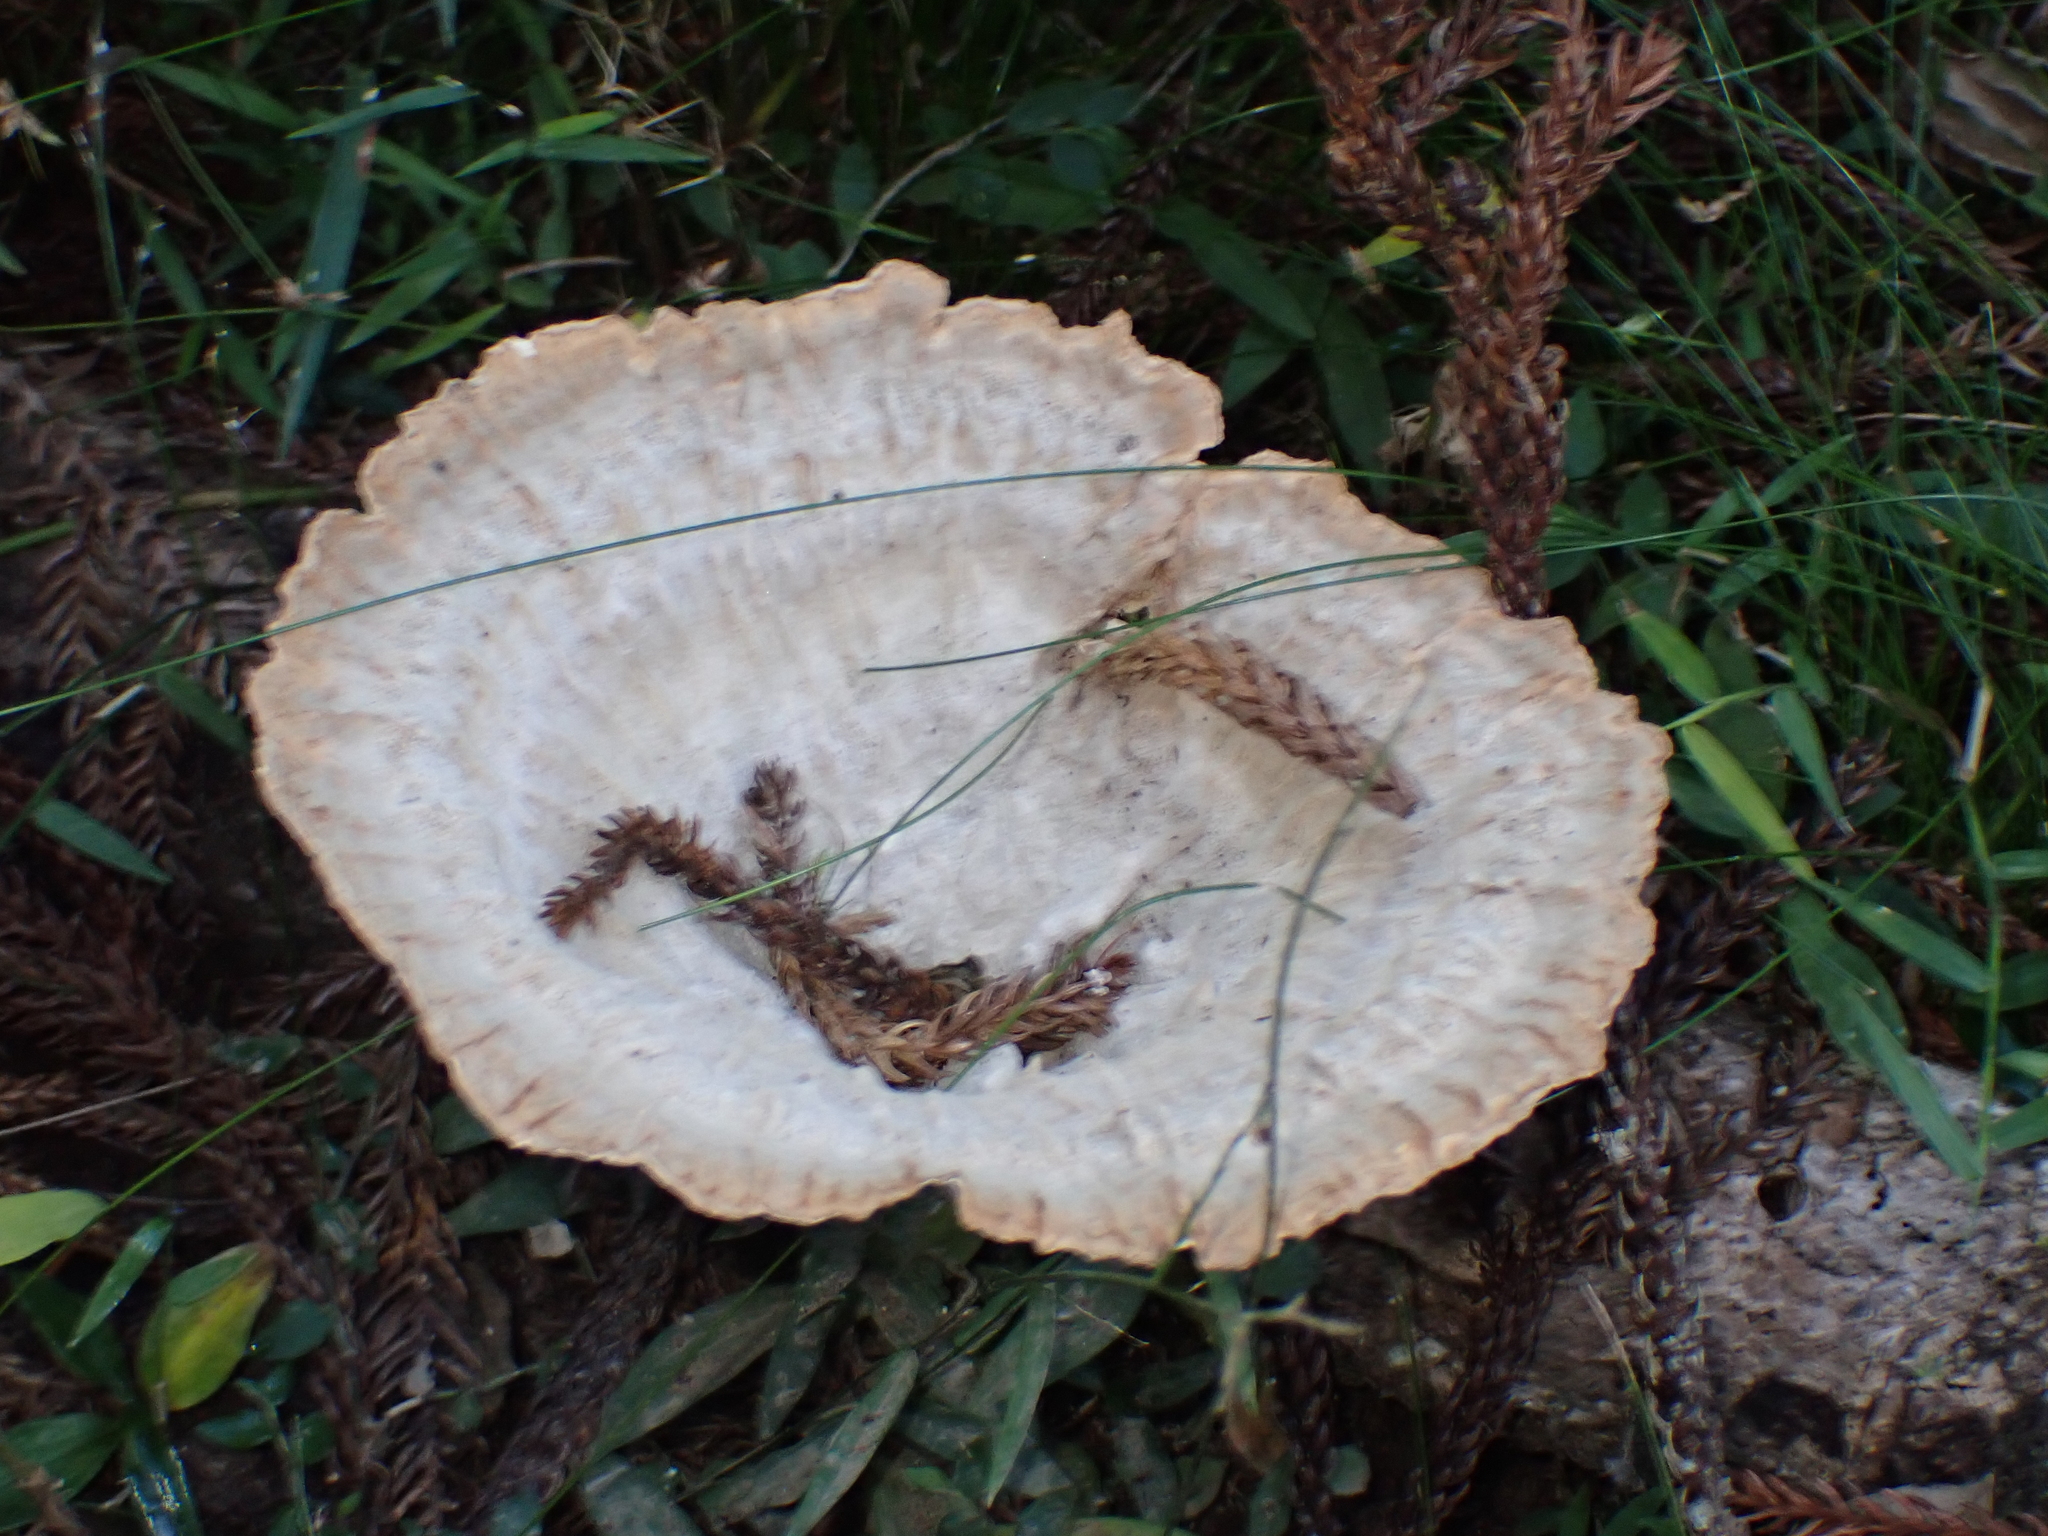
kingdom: Fungi
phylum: Basidiomycota
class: Agaricomycetes
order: Polyporales
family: Panaceae
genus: Cymatoderma
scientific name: Cymatoderma elegans
